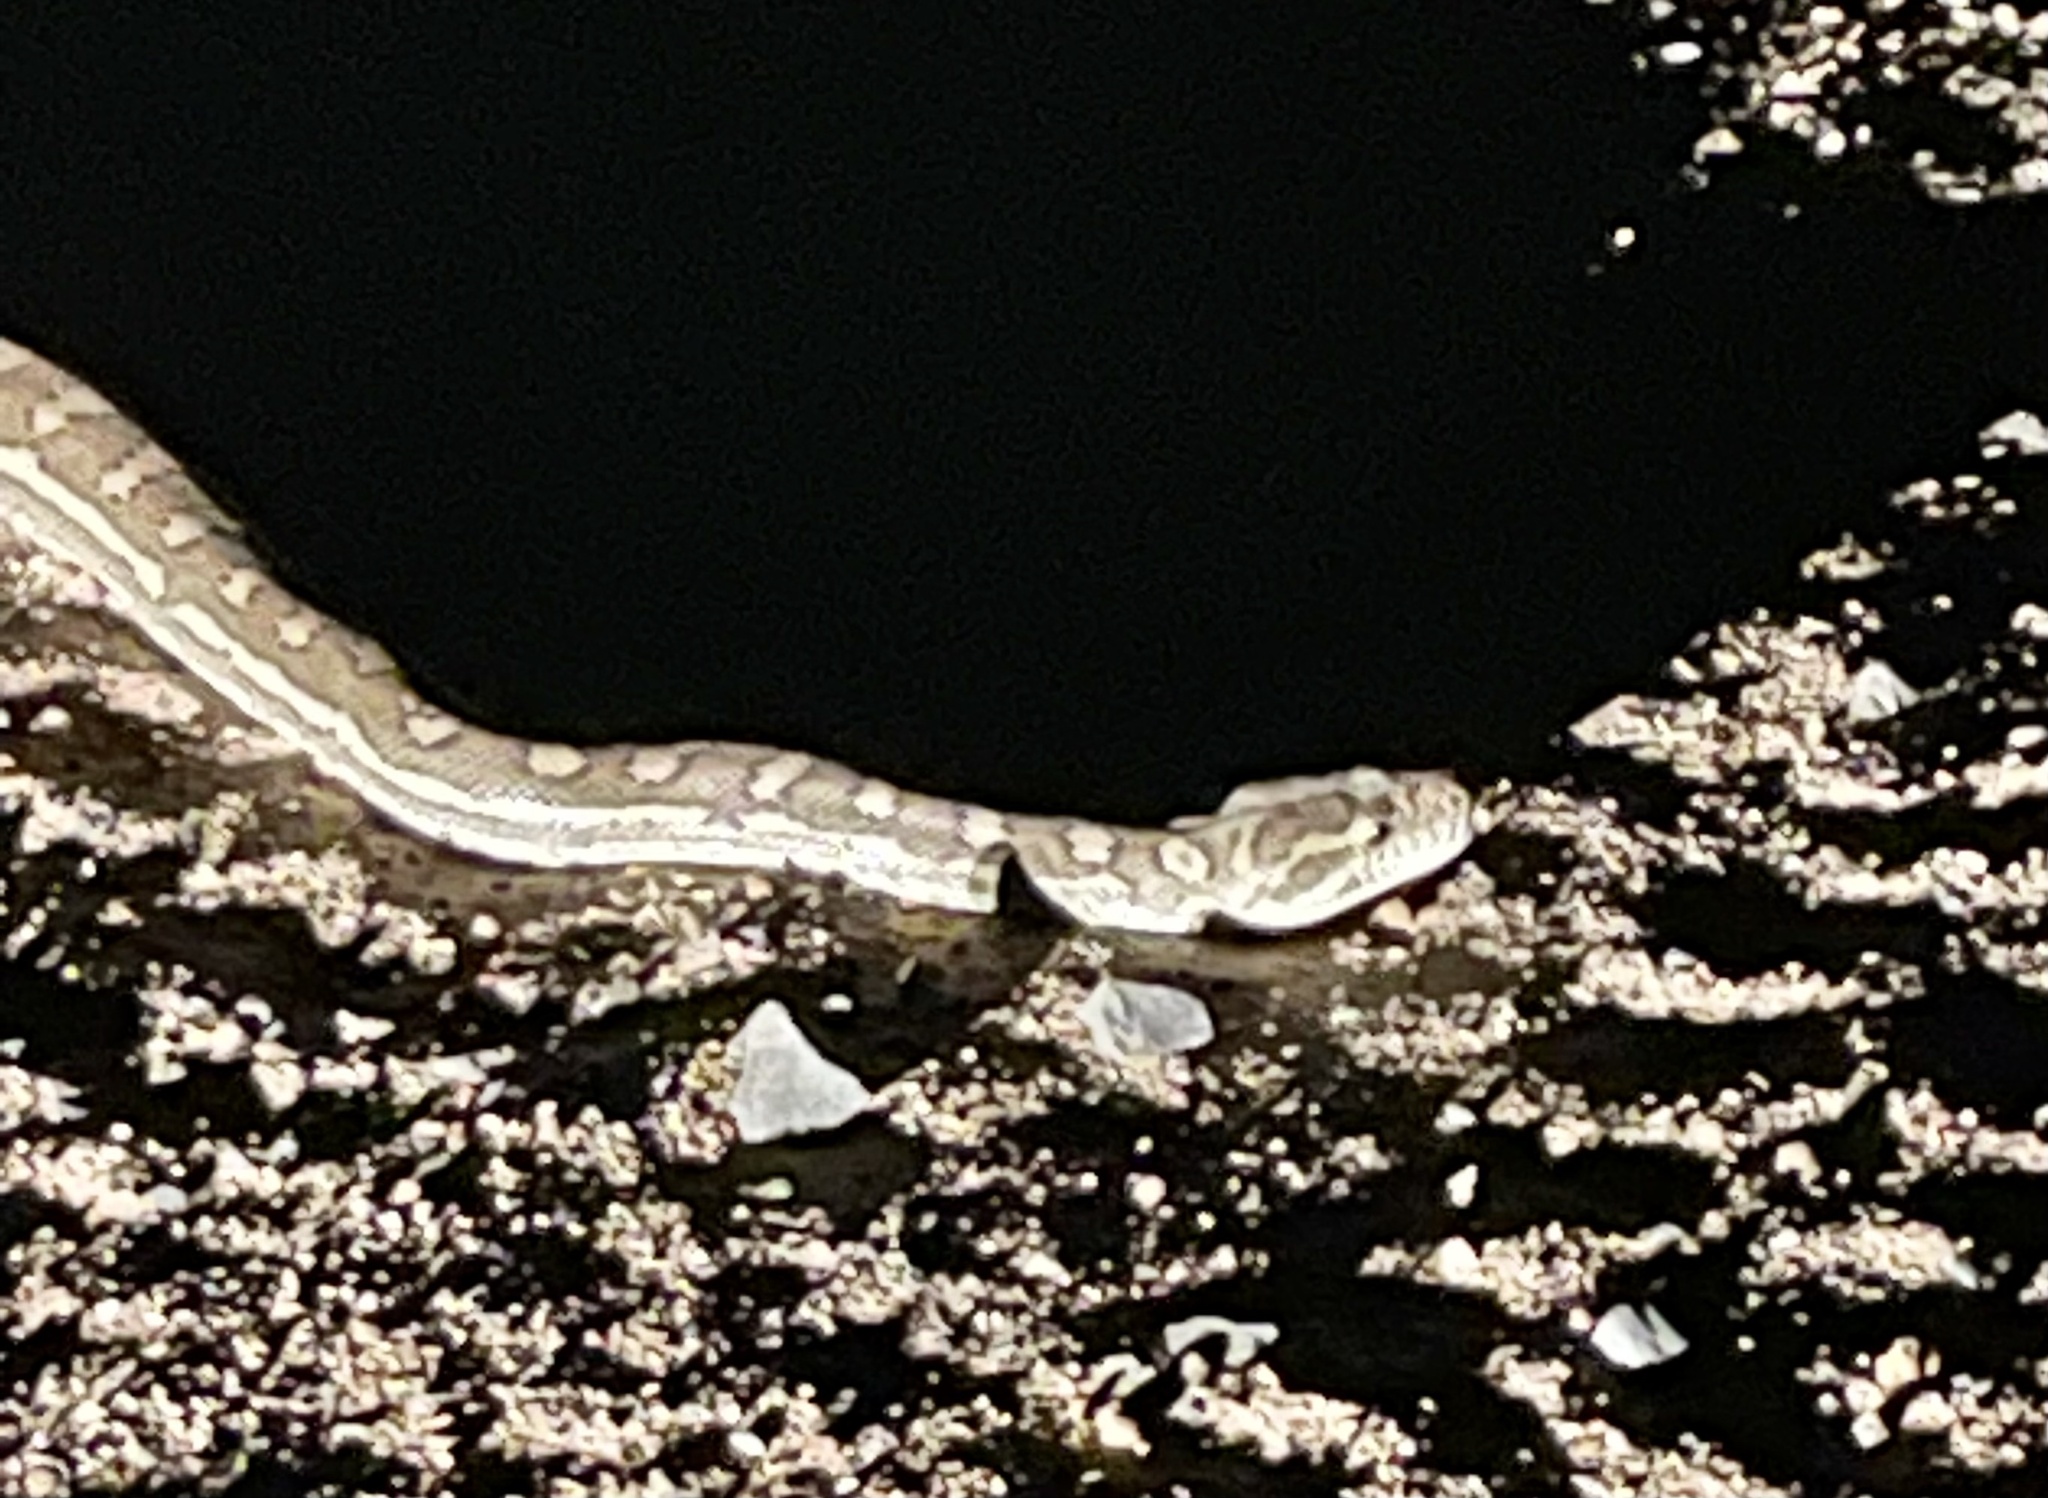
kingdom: Animalia
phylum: Chordata
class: Squamata
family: Pythonidae
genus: Morelia
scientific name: Morelia spilota
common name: Carpet python
